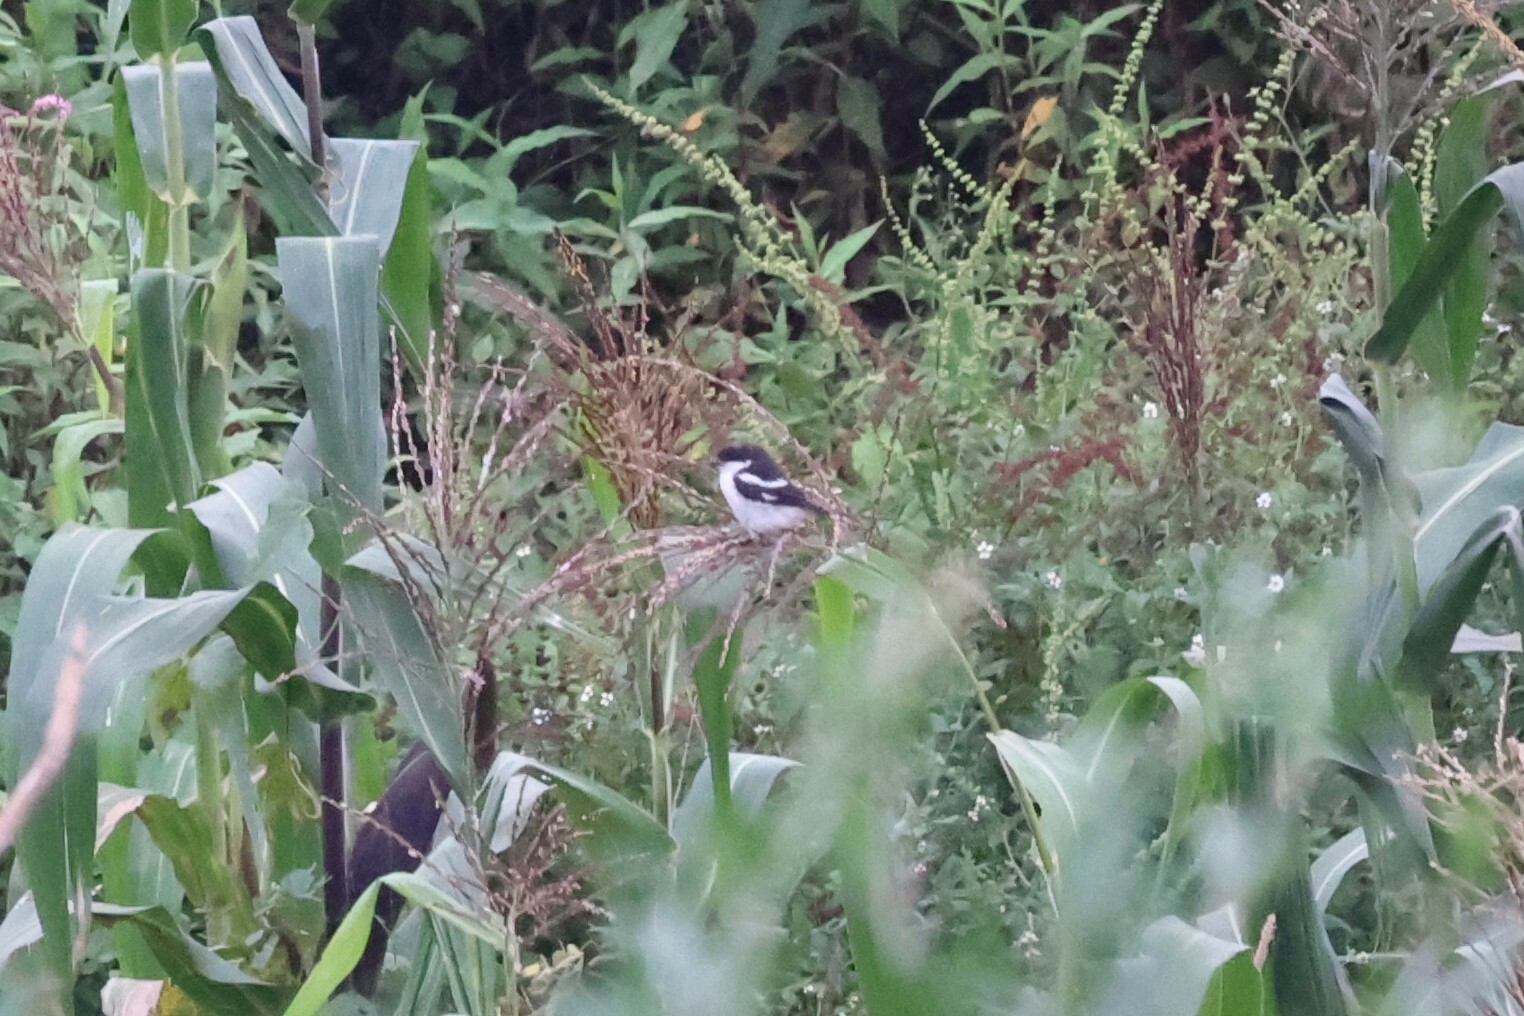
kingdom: Animalia
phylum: Chordata
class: Aves
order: Passeriformes
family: Laniidae
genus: Lanius
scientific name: Lanius humeralis
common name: Northern fiscal
